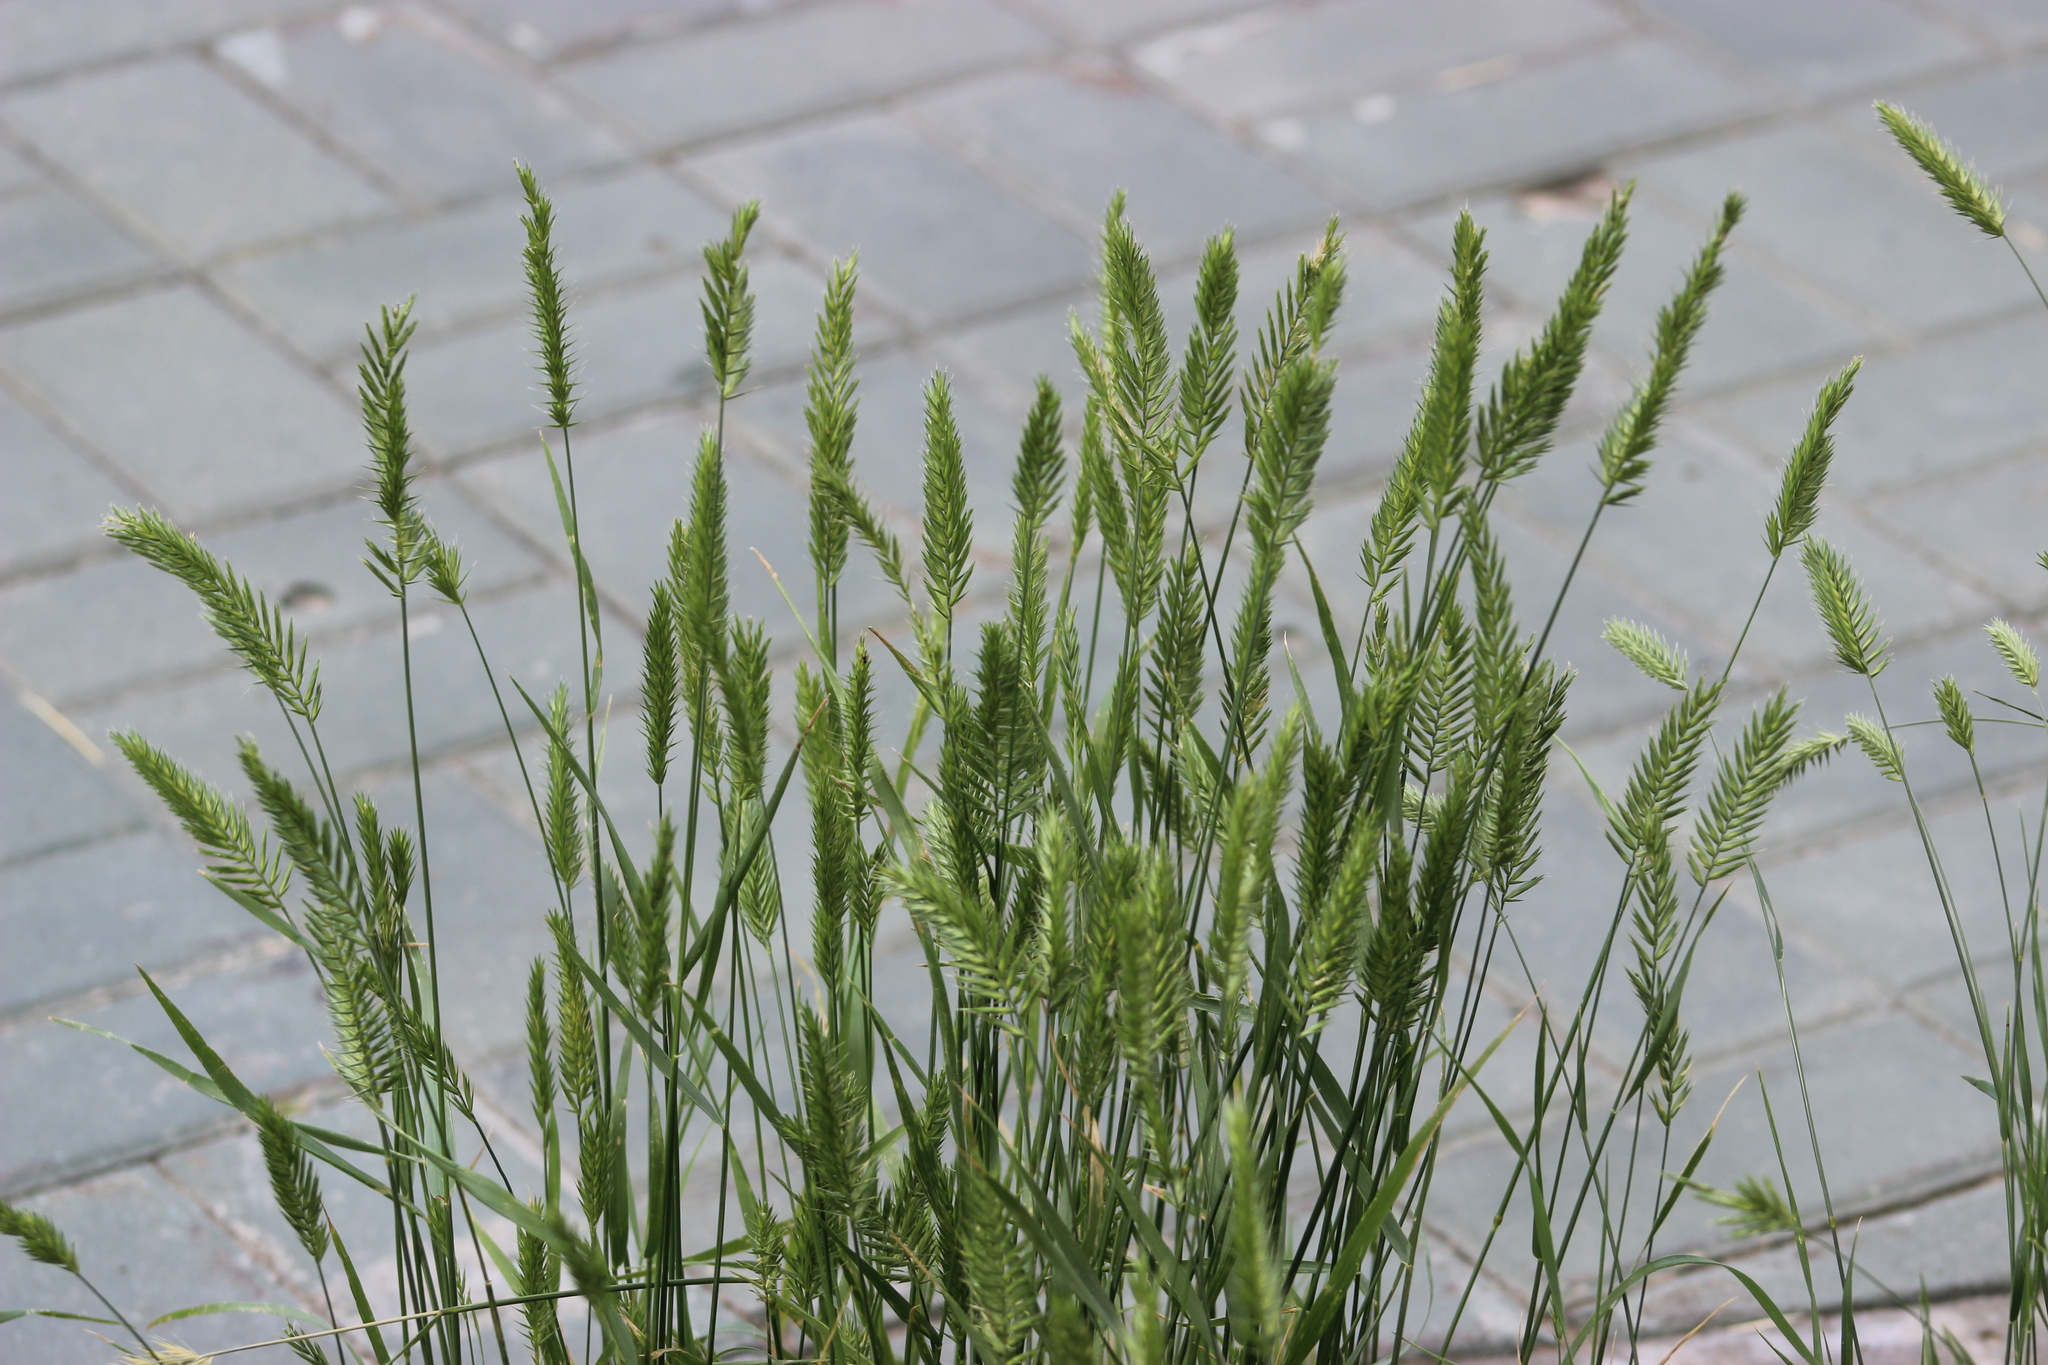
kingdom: Plantae
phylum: Tracheophyta
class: Liliopsida
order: Poales
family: Poaceae
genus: Agropyron
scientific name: Agropyron cristatum
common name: Crested wheatgrass
